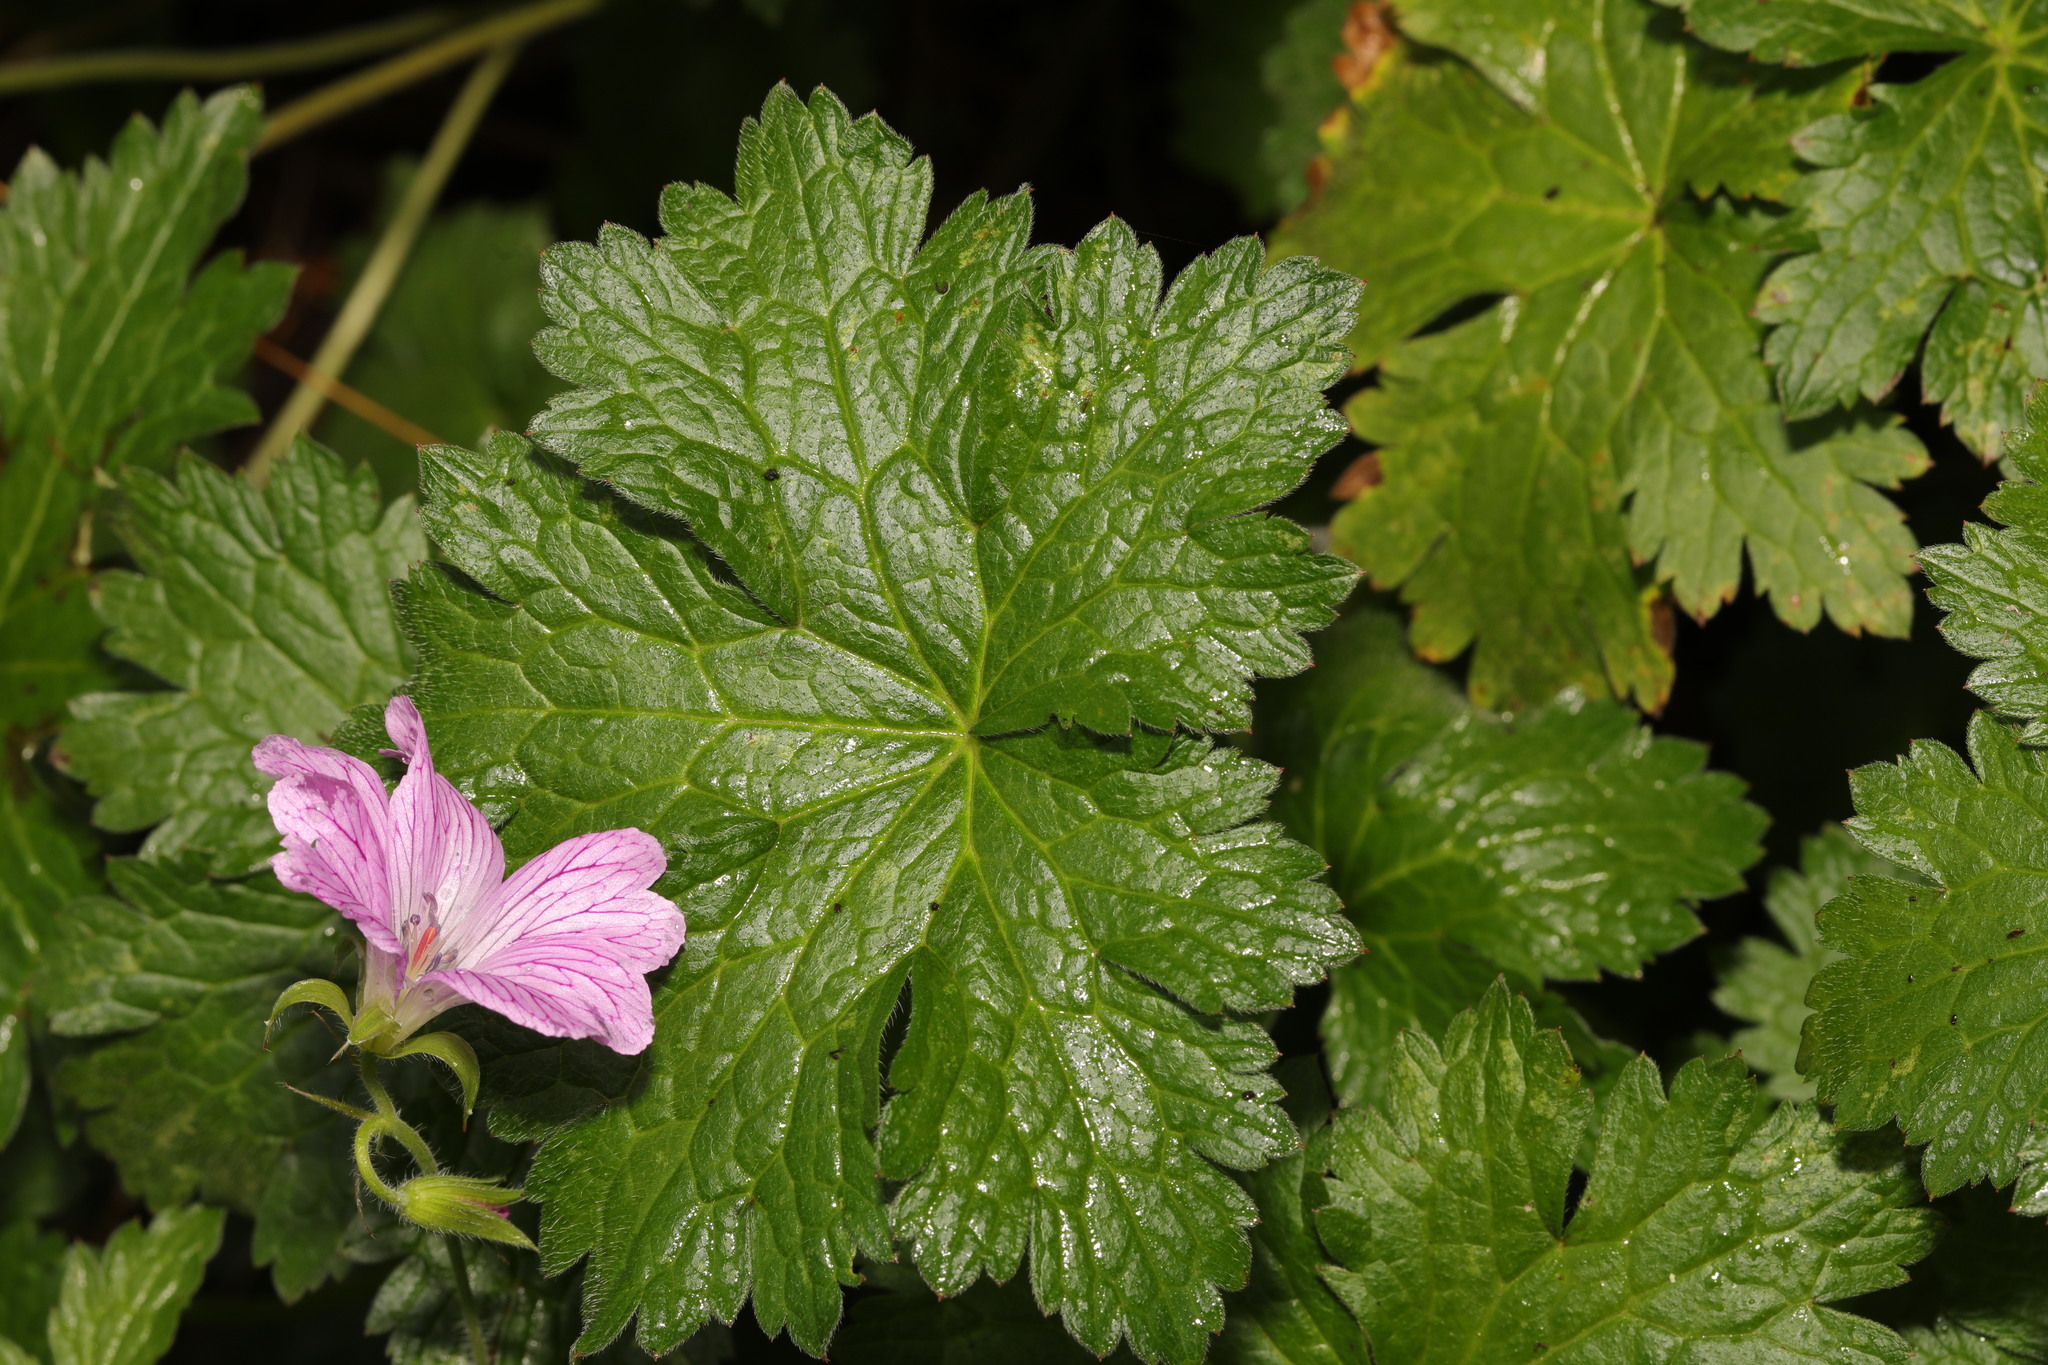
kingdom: Plantae
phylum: Tracheophyta
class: Magnoliopsida
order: Geraniales
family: Geraniaceae
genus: Geranium
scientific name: Geranium oxonianum
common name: Druce's crane's-bill
